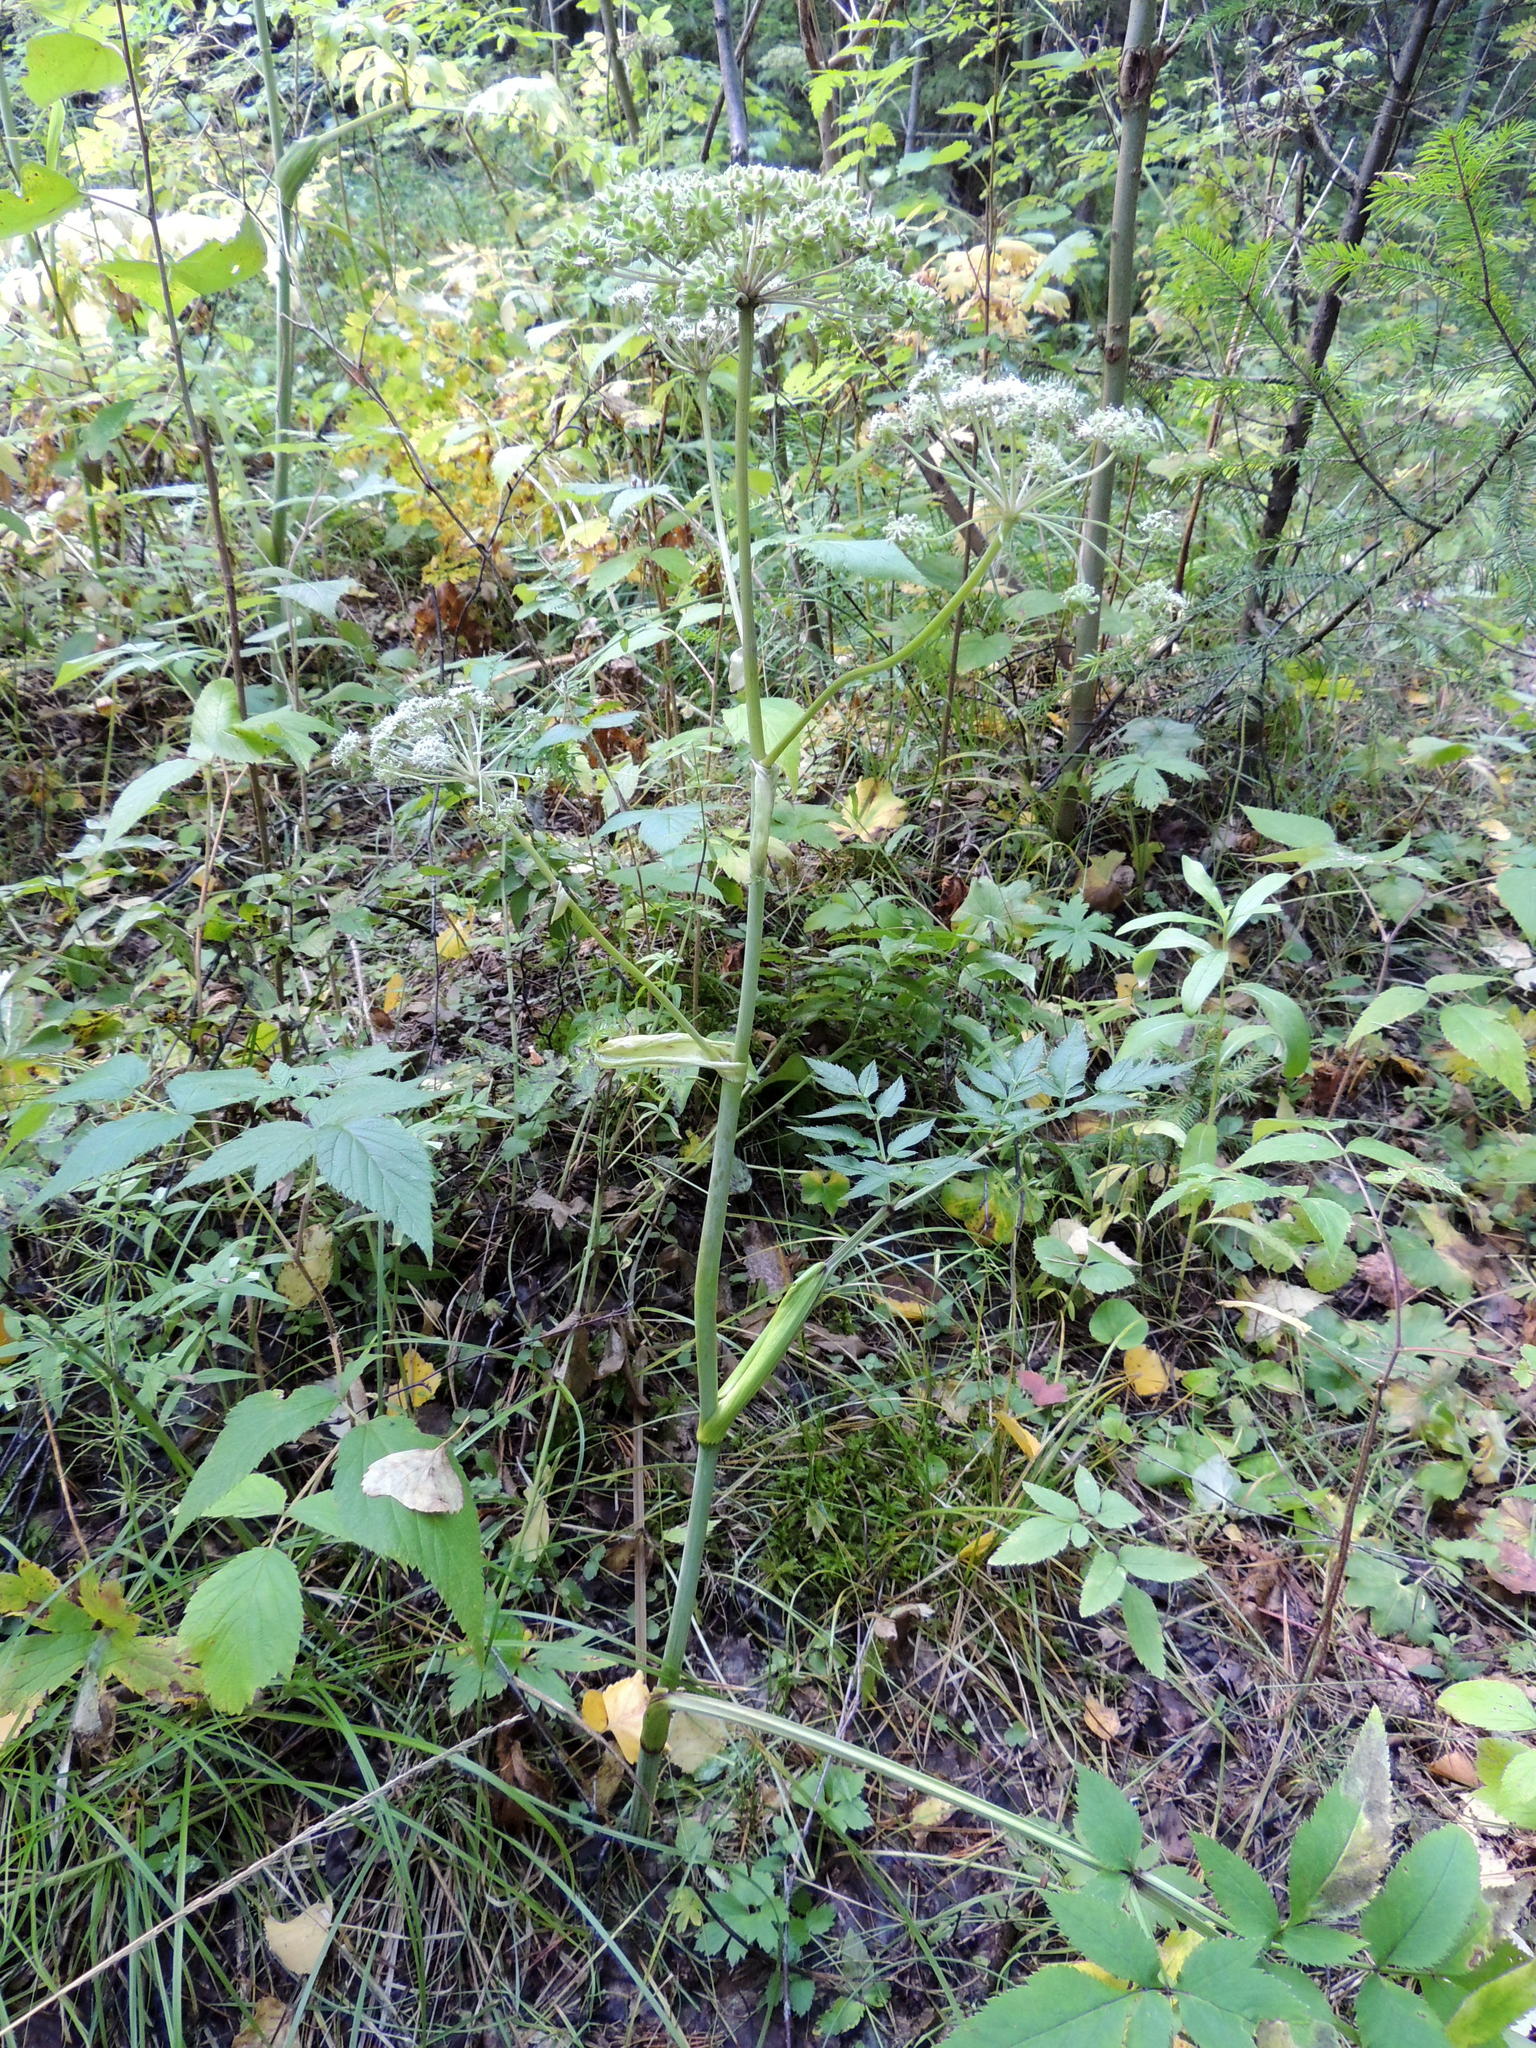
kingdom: Plantae
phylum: Tracheophyta
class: Magnoliopsida
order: Apiales
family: Apiaceae
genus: Angelica
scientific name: Angelica sylvestris
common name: Wild angelica
